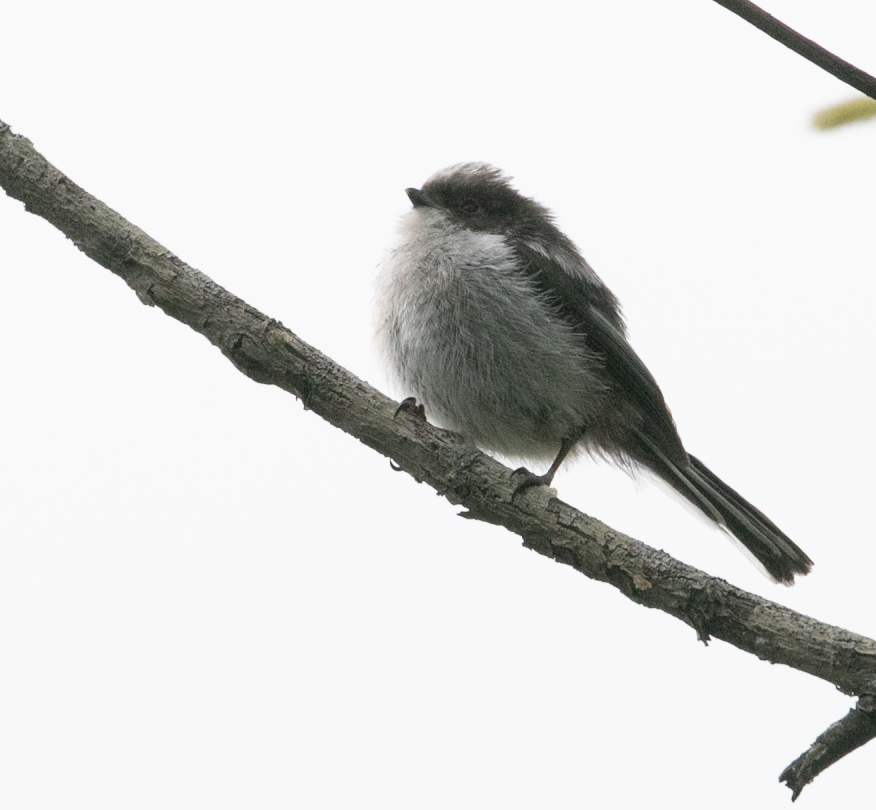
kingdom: Animalia
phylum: Chordata
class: Aves
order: Passeriformes
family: Aegithalidae
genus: Aegithalos
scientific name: Aegithalos caudatus
